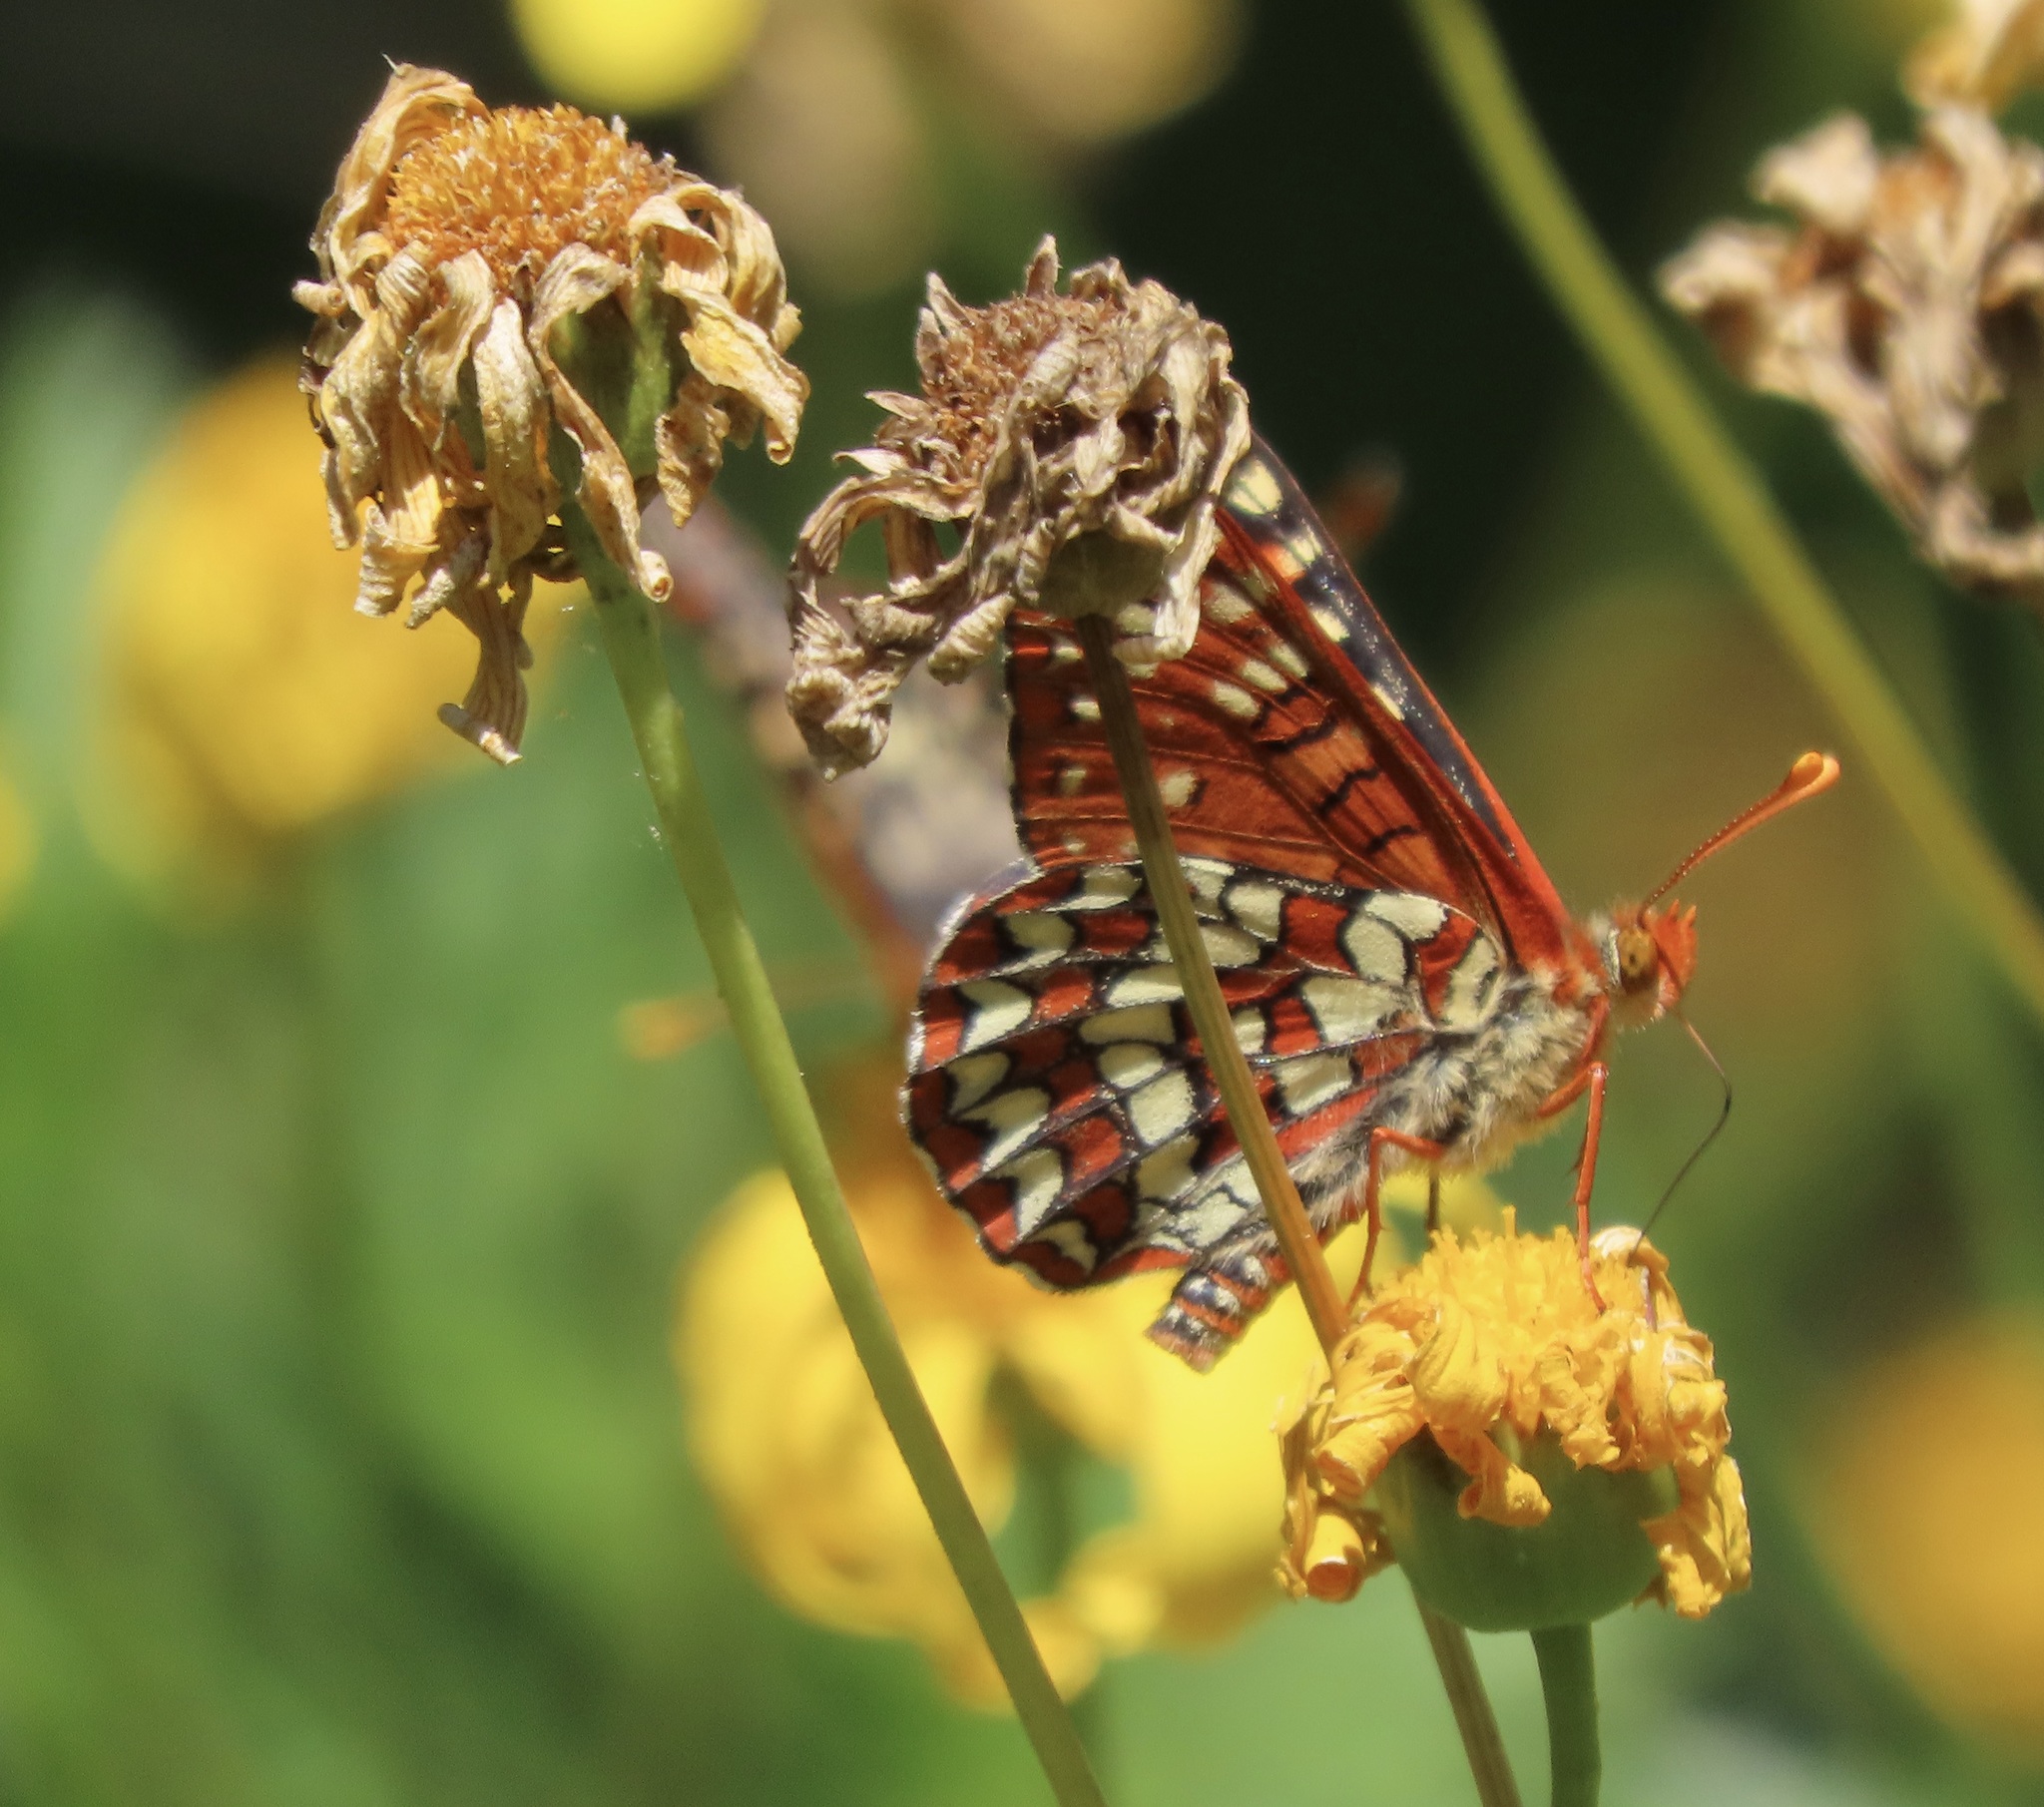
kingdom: Animalia
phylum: Arthropoda
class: Insecta
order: Lepidoptera
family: Nymphalidae
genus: Occidryas
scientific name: Occidryas chalcedona
